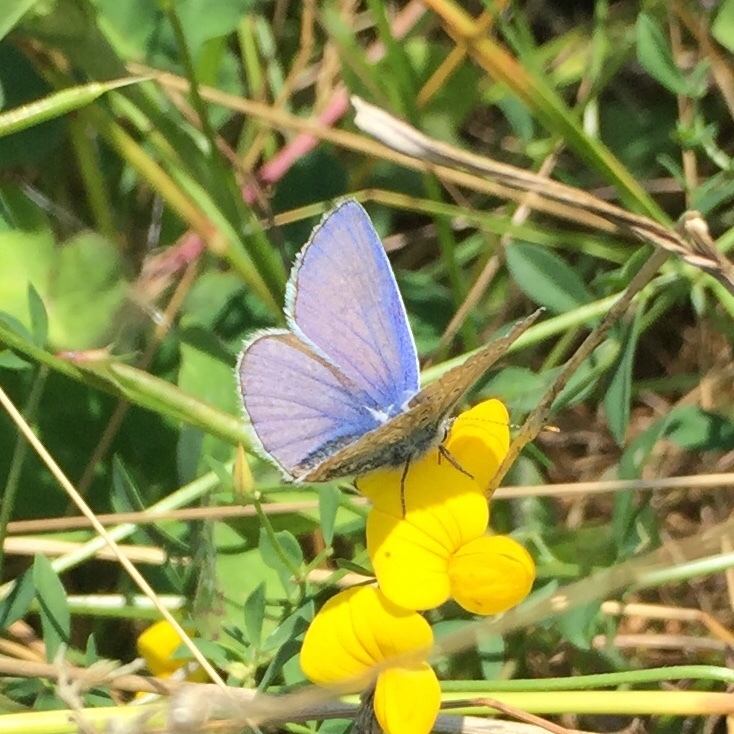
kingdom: Animalia
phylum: Arthropoda
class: Insecta
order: Lepidoptera
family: Lycaenidae
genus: Polyommatus
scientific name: Polyommatus icarus
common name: Common blue
